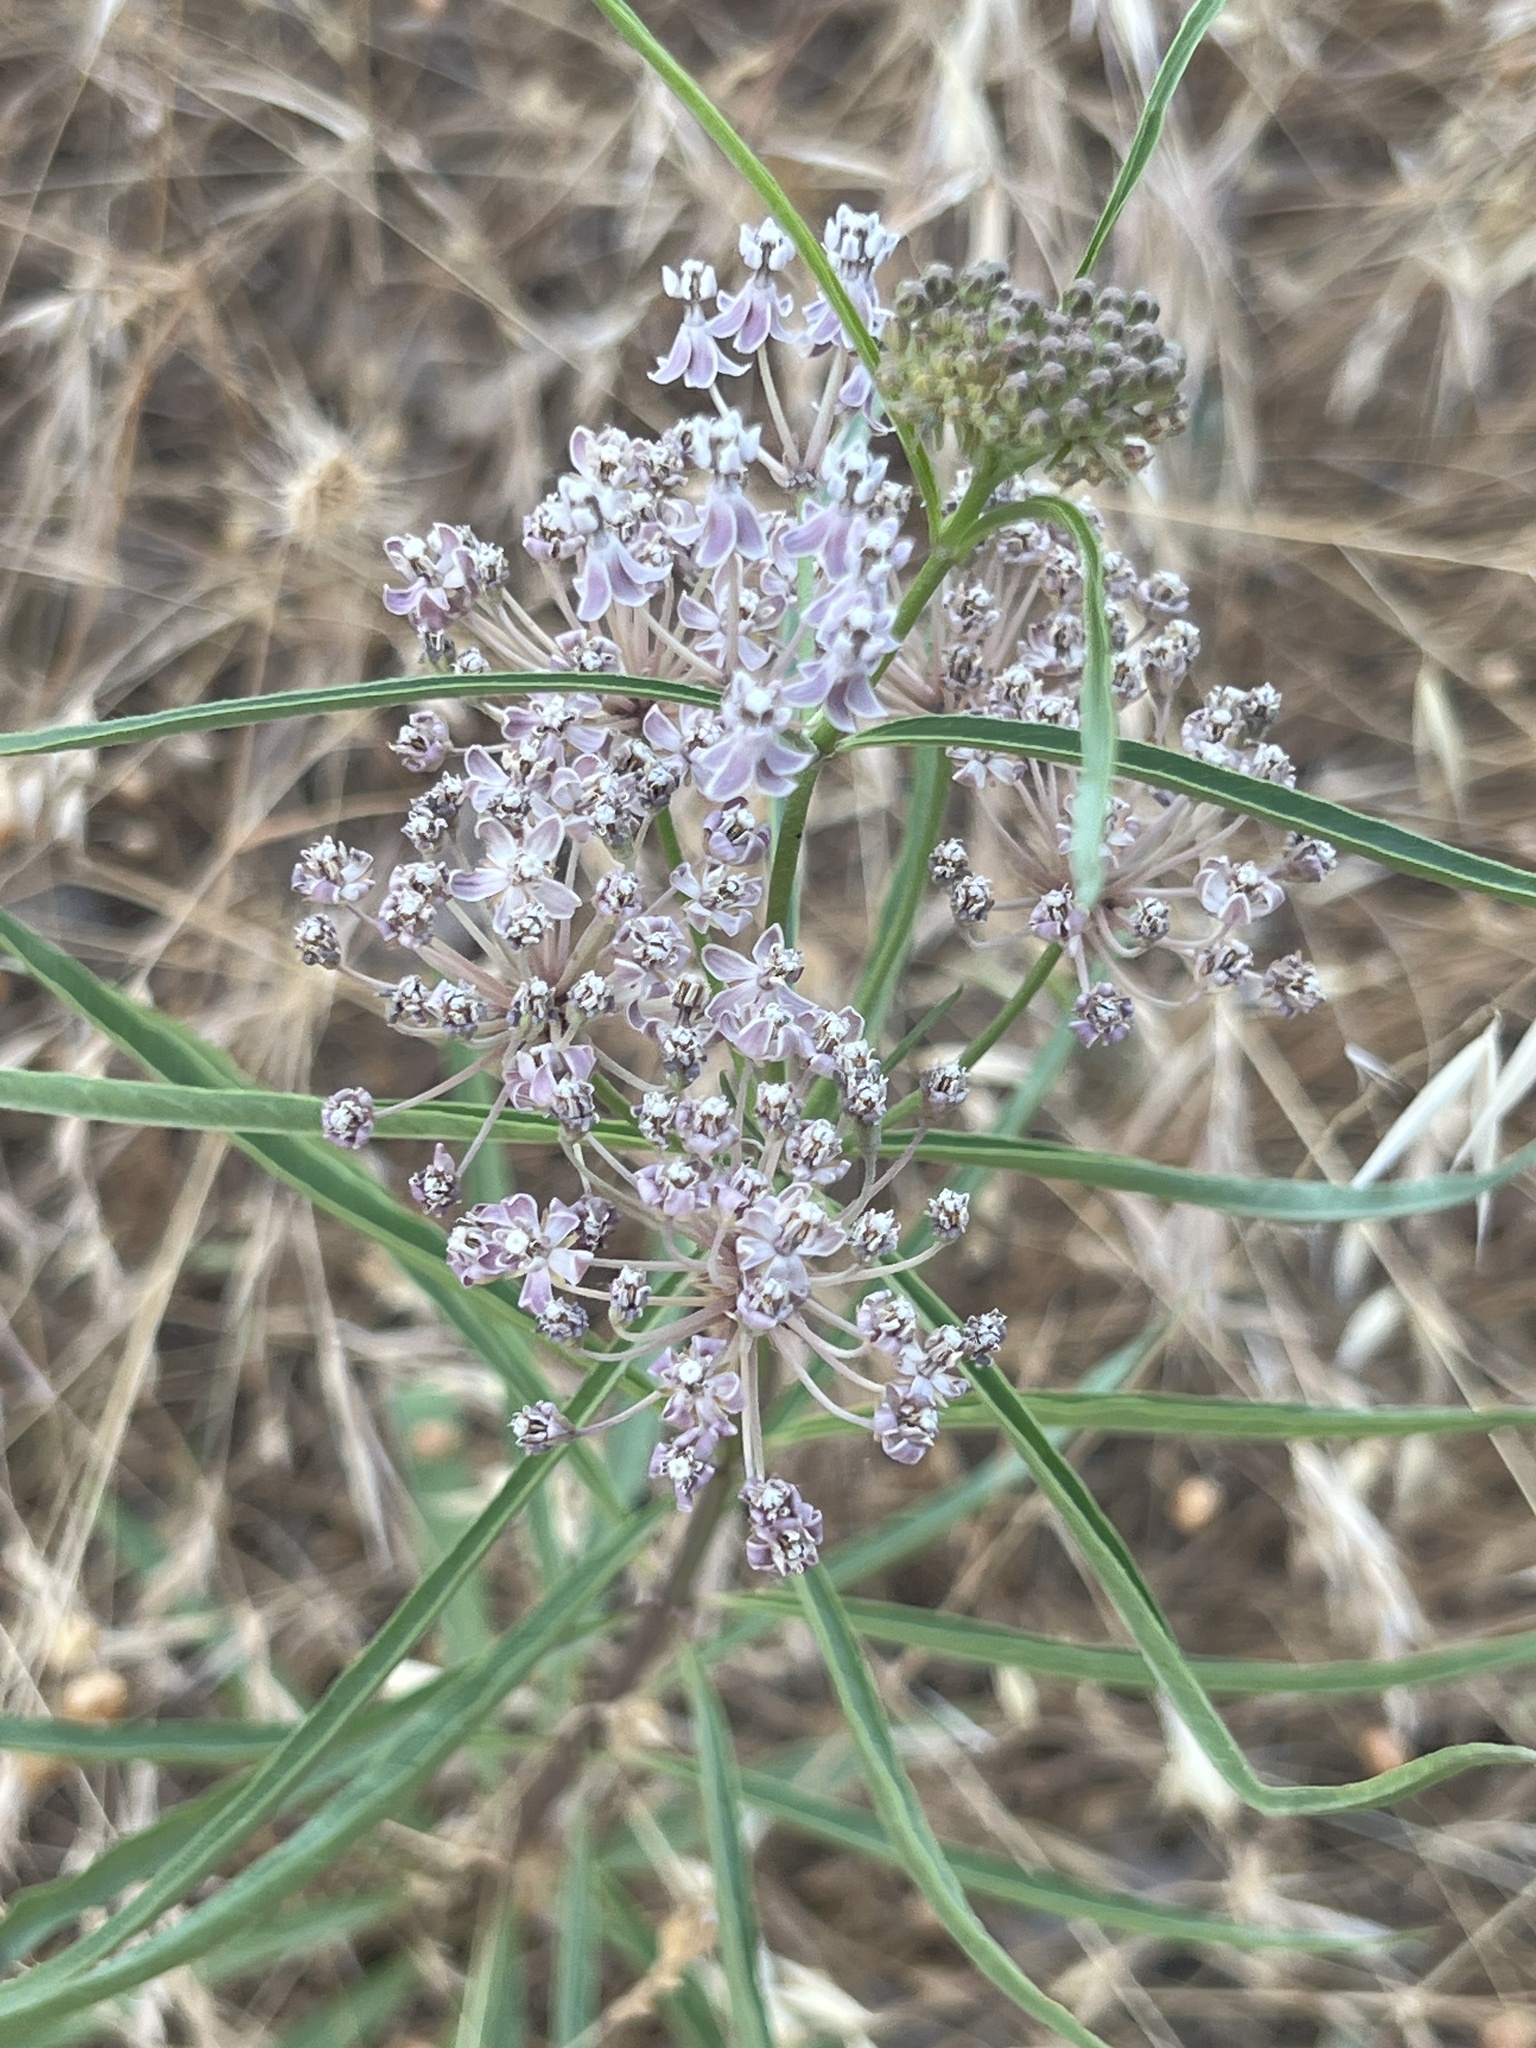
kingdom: Plantae
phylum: Tracheophyta
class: Magnoliopsida
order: Gentianales
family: Apocynaceae
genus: Asclepias
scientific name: Asclepias fascicularis
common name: Mexican milkweed
